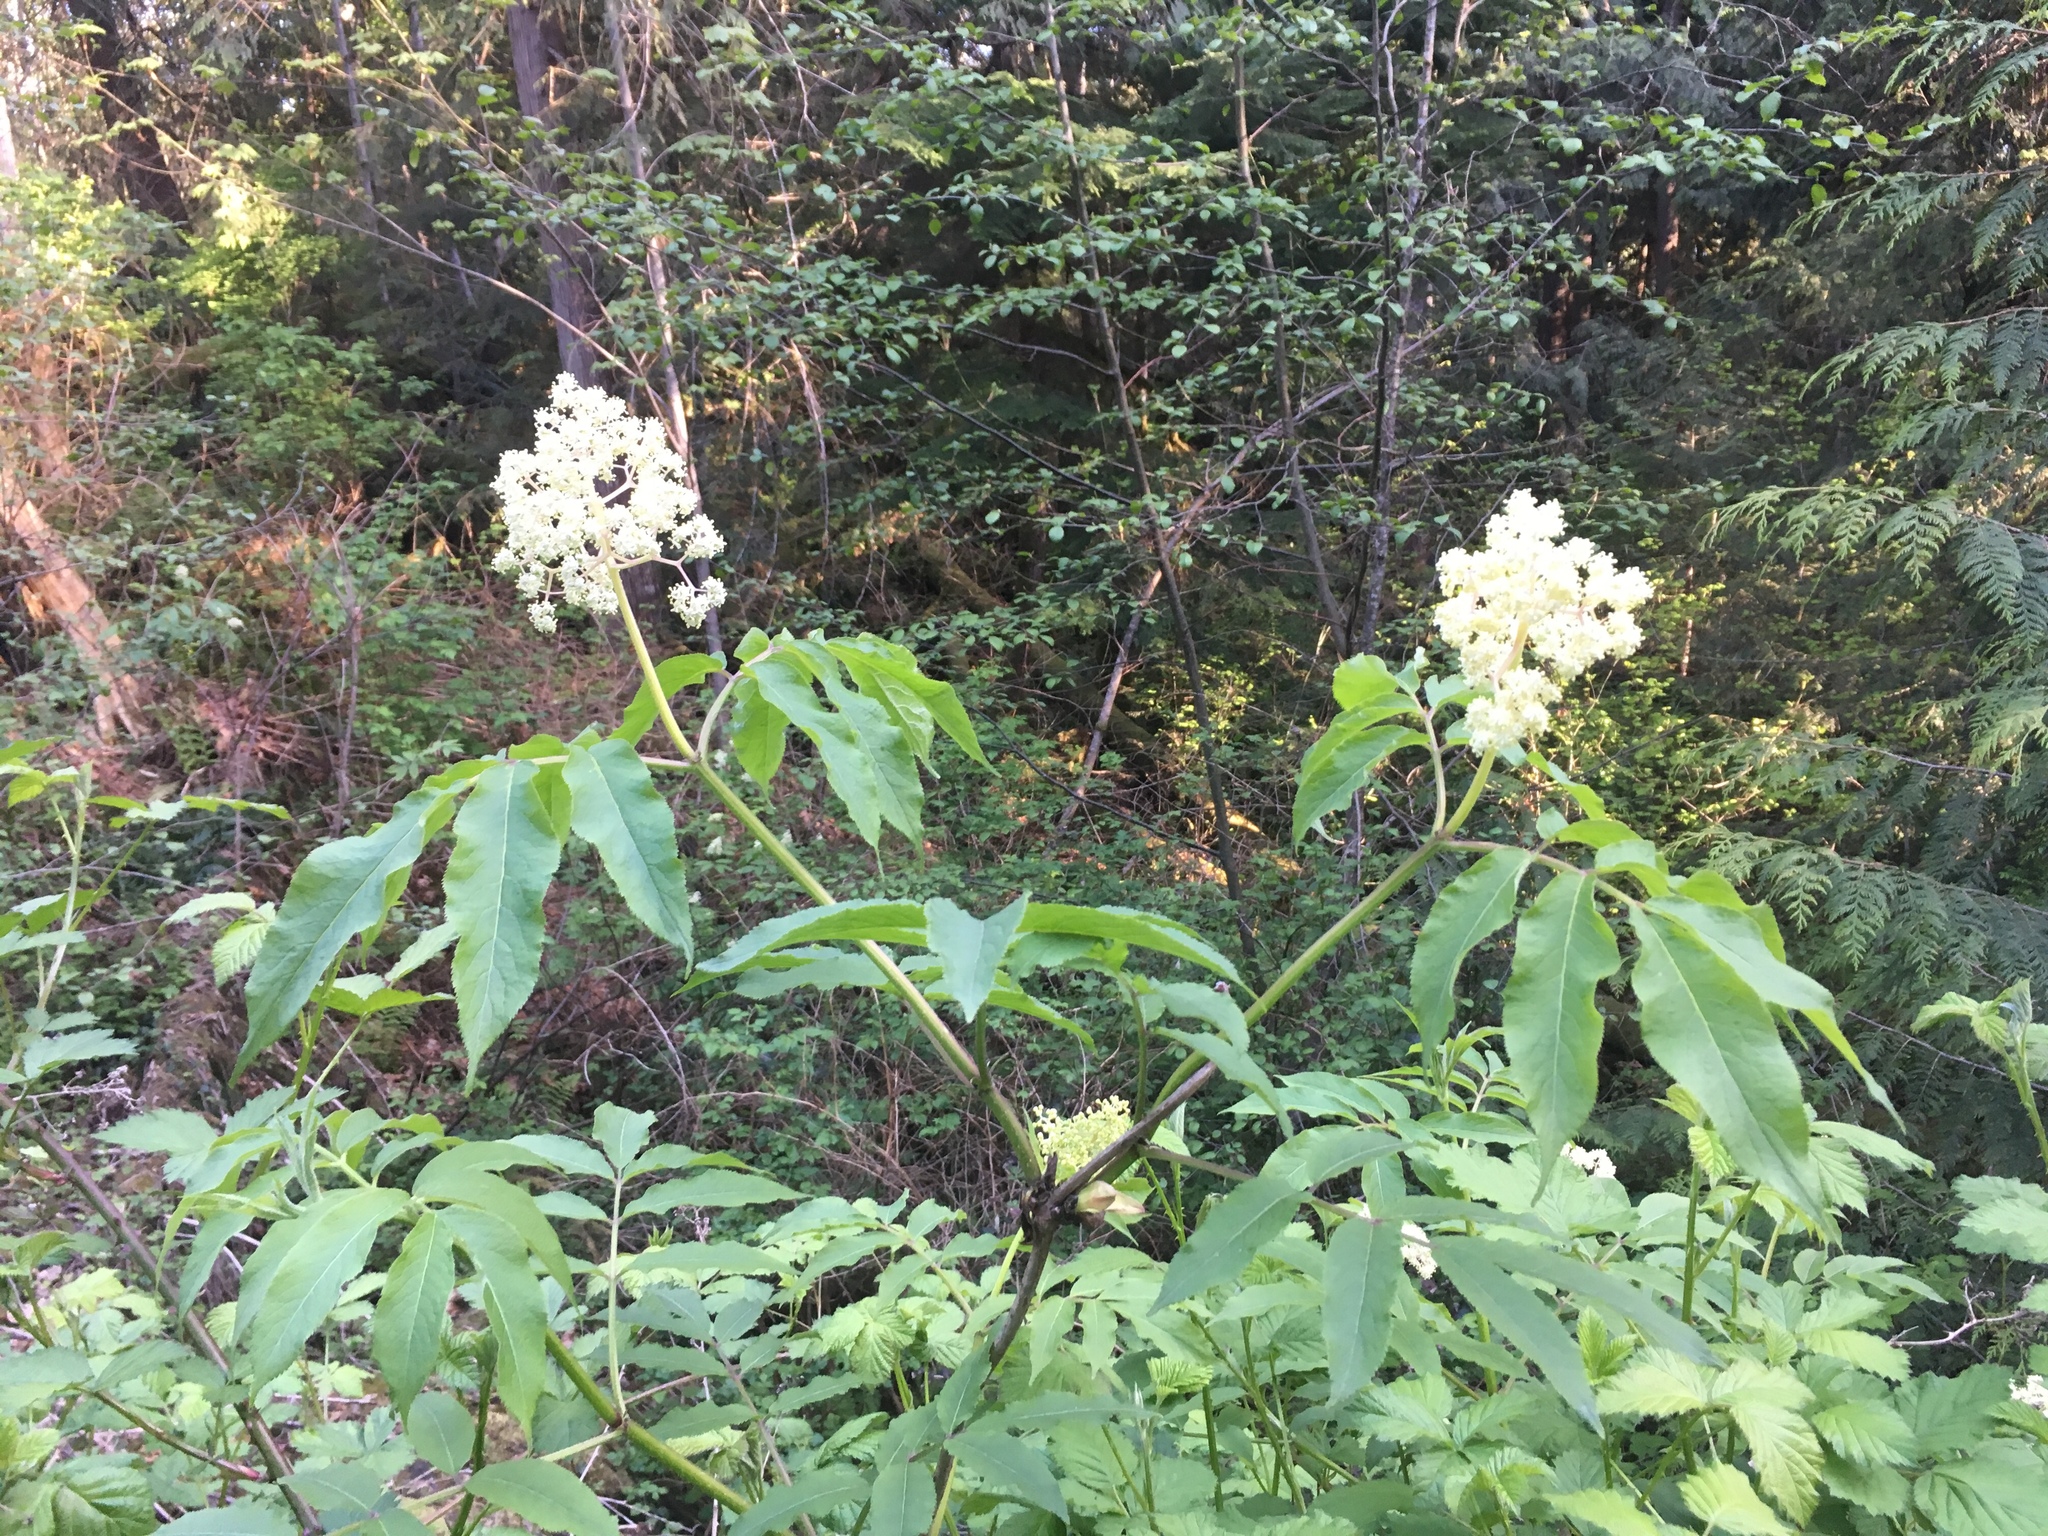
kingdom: Plantae
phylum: Tracheophyta
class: Magnoliopsida
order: Dipsacales
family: Viburnaceae
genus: Sambucus
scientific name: Sambucus racemosa
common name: Red-berried elder
